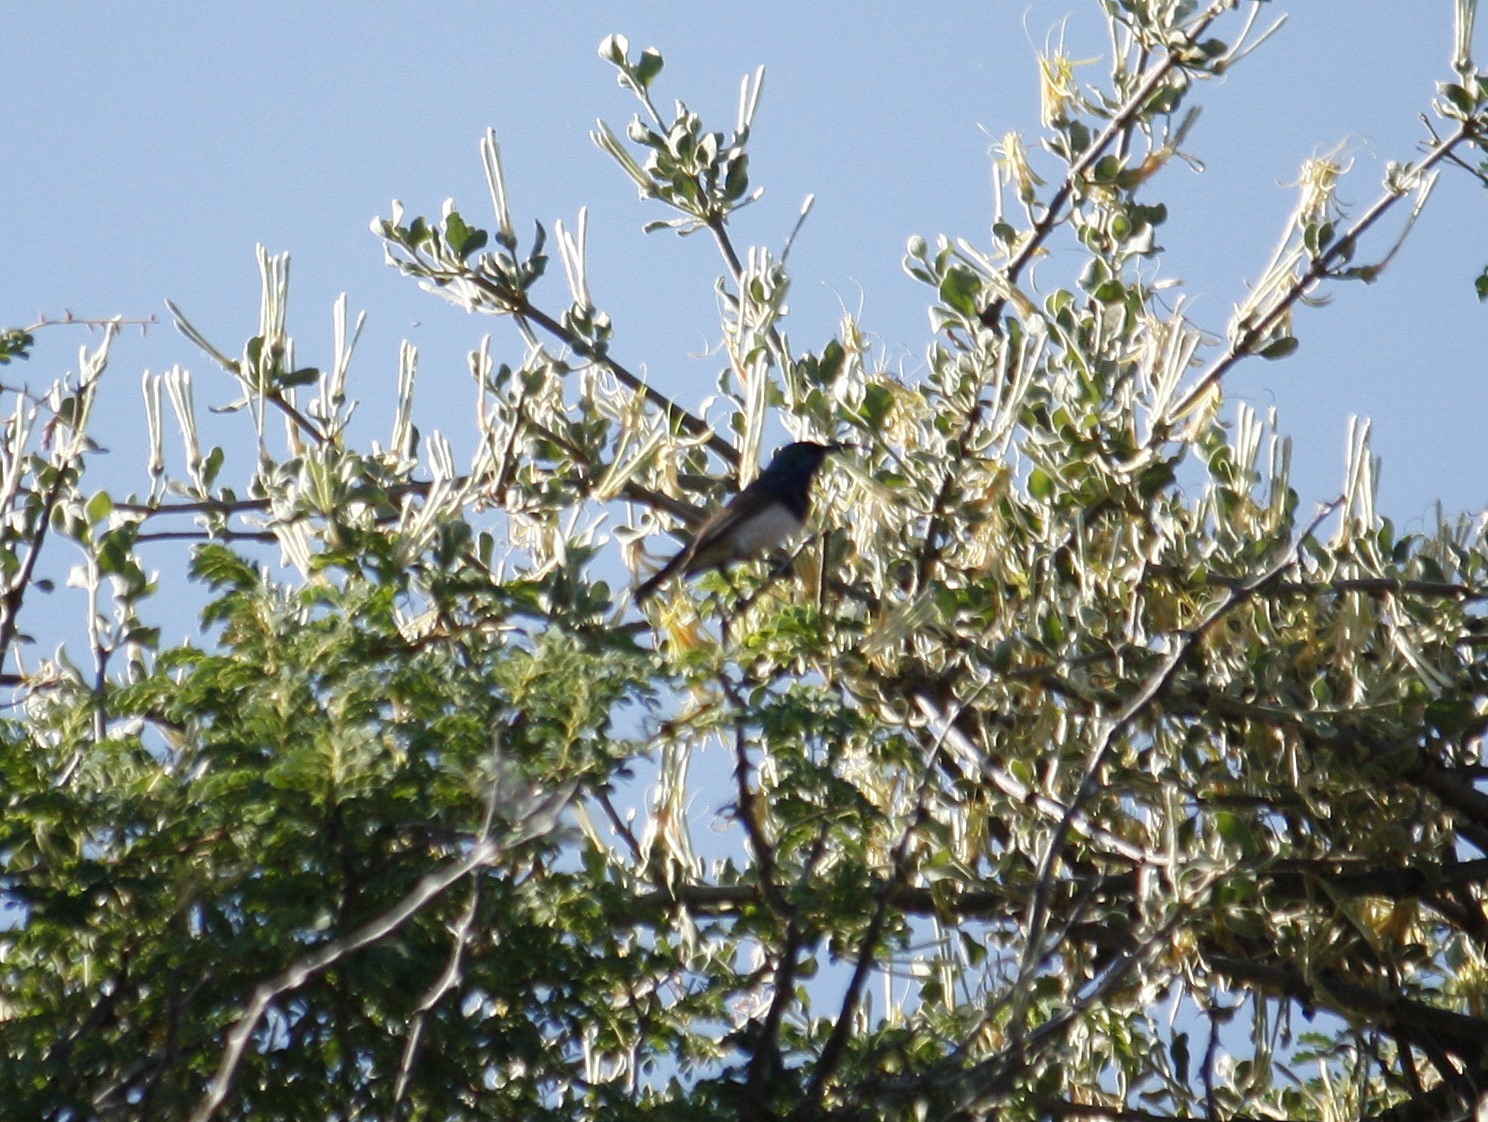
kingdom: Animalia
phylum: Chordata
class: Aves
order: Passeriformes
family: Nectariniidae
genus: Cinnyris
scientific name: Cinnyris talatala
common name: White-bellied sunbird
